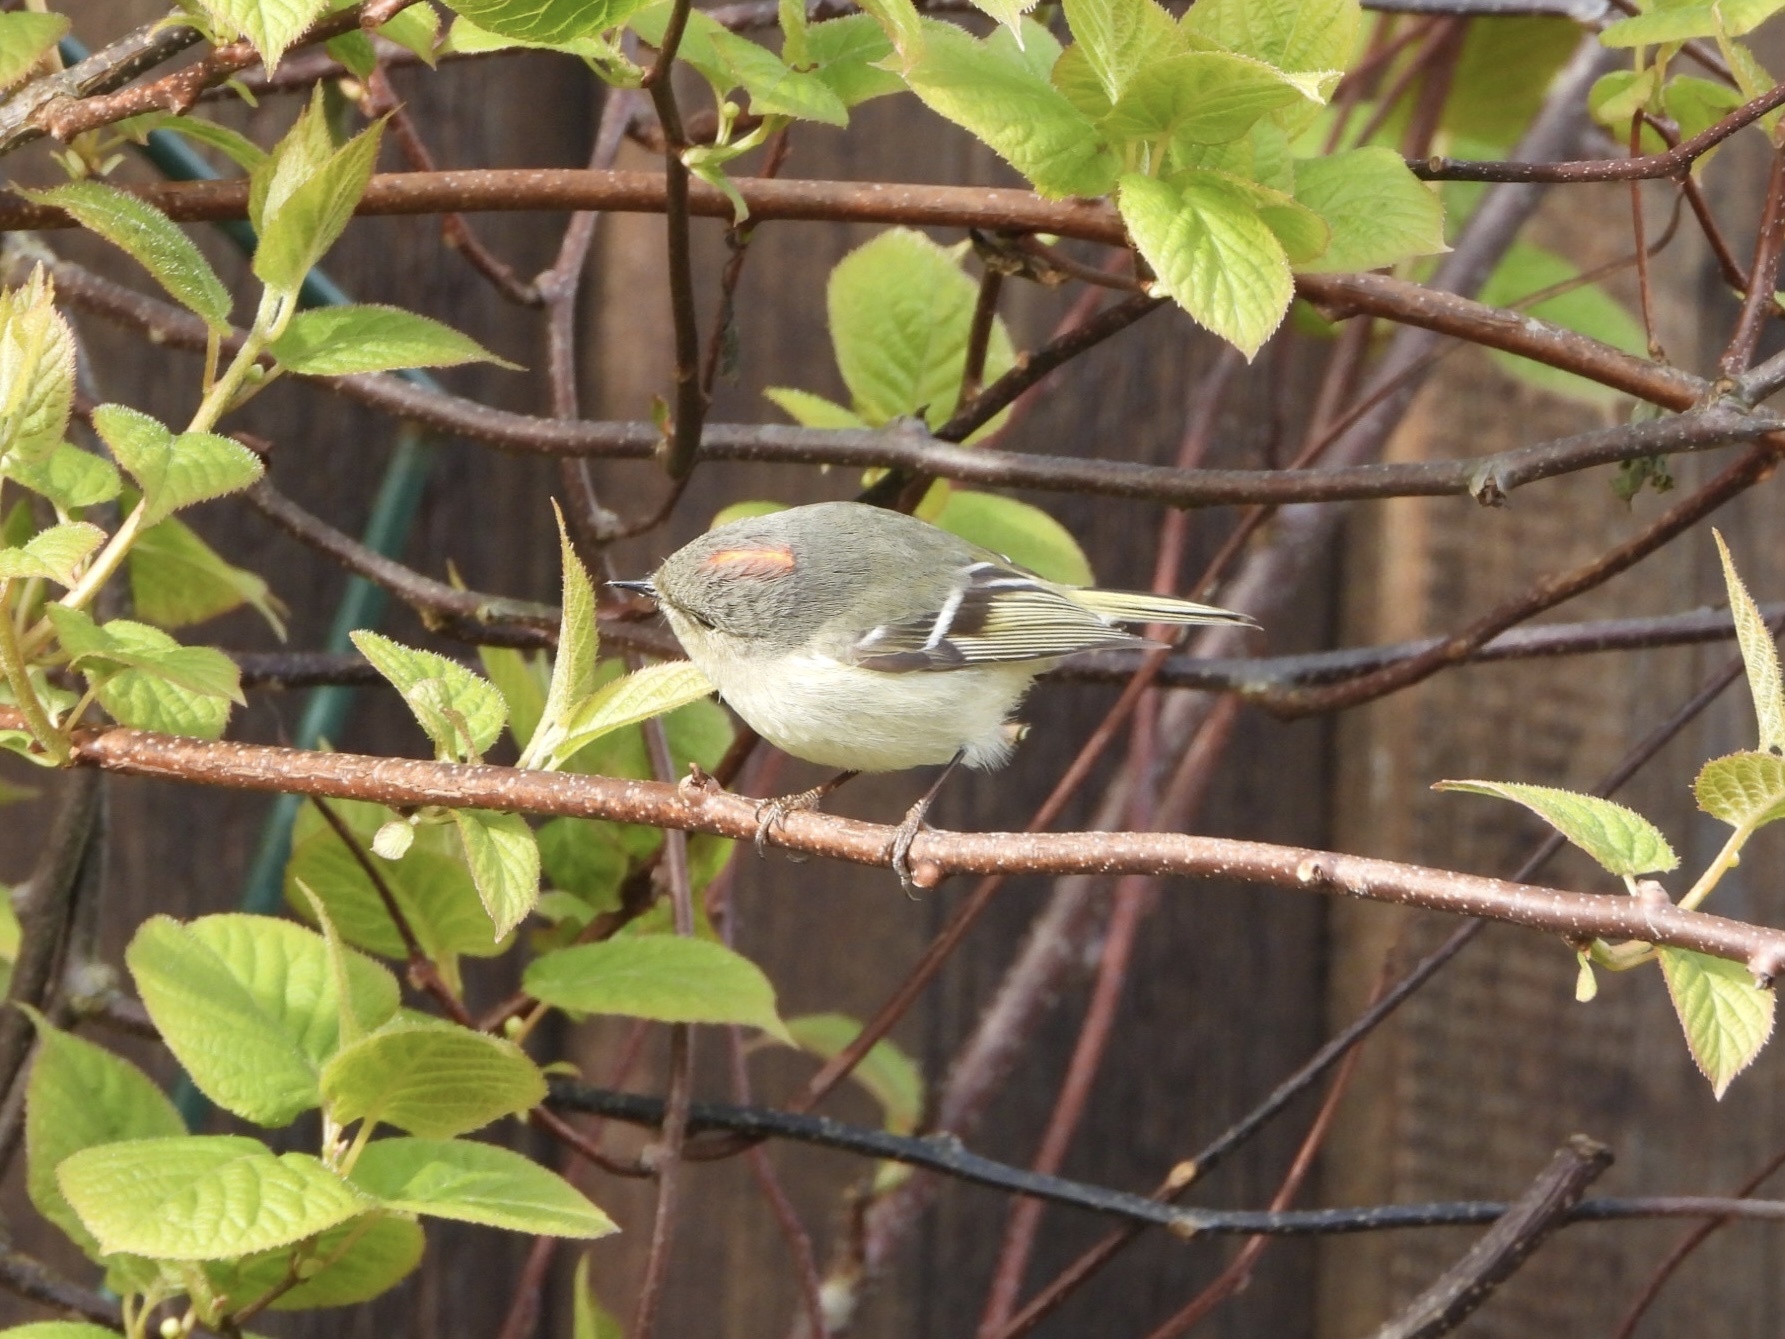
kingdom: Animalia
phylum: Chordata
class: Aves
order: Passeriformes
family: Regulidae
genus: Regulus
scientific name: Regulus calendula
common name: Ruby-crowned kinglet
